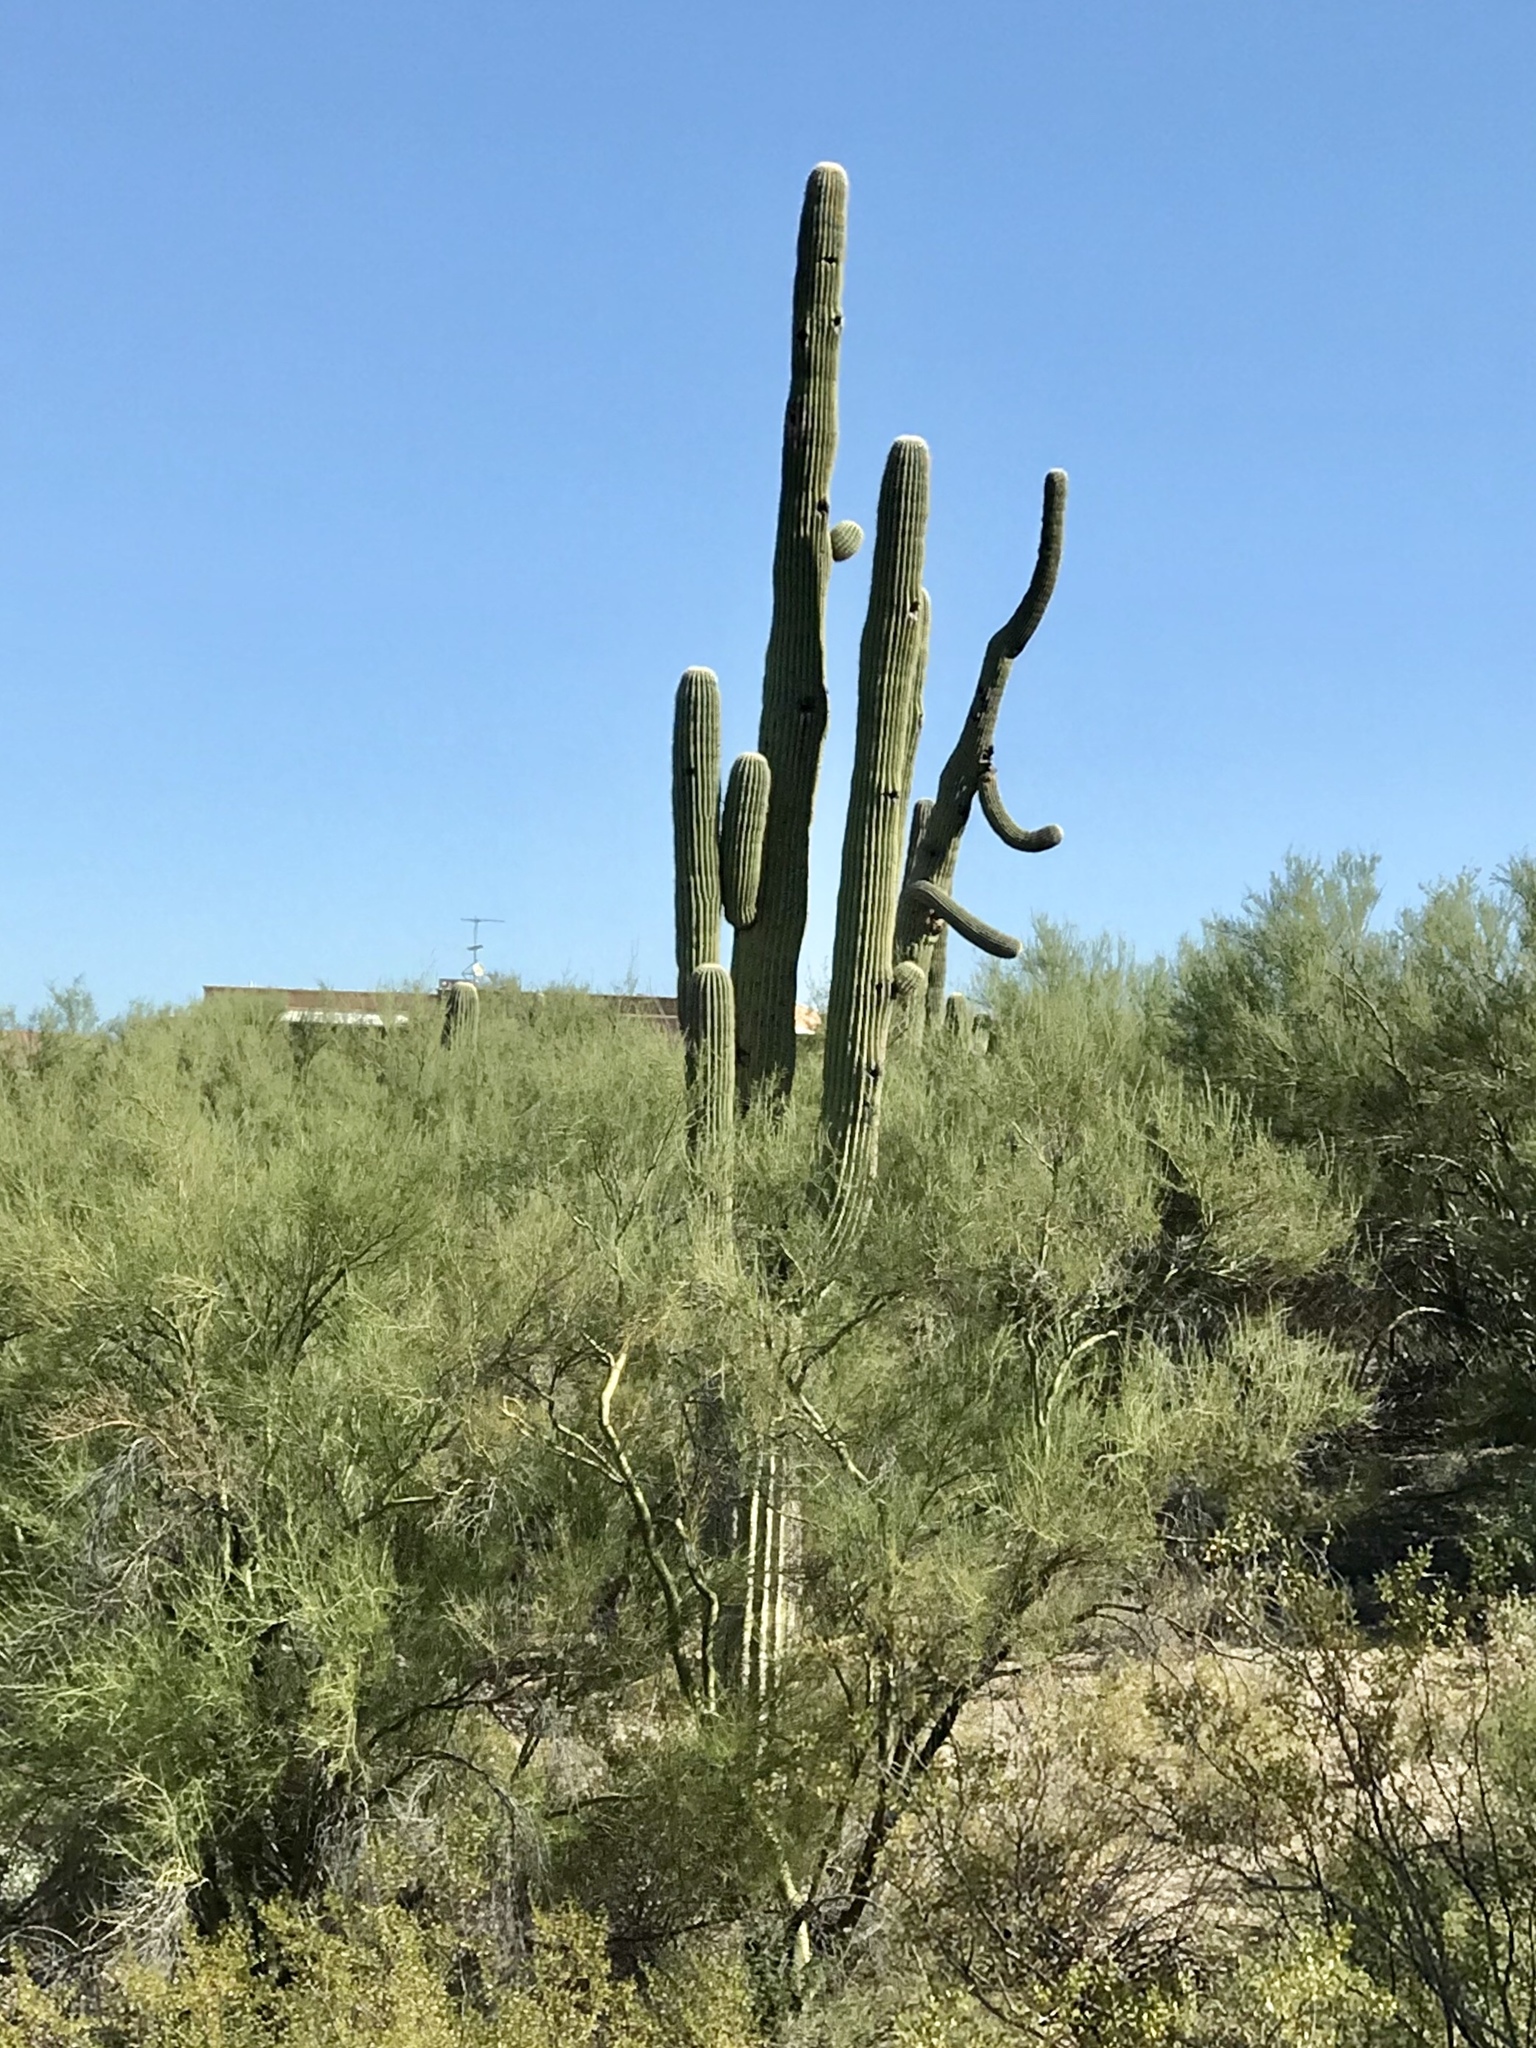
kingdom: Plantae
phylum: Tracheophyta
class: Magnoliopsida
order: Caryophyllales
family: Cactaceae
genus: Carnegiea
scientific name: Carnegiea gigantea
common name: Saguaro
